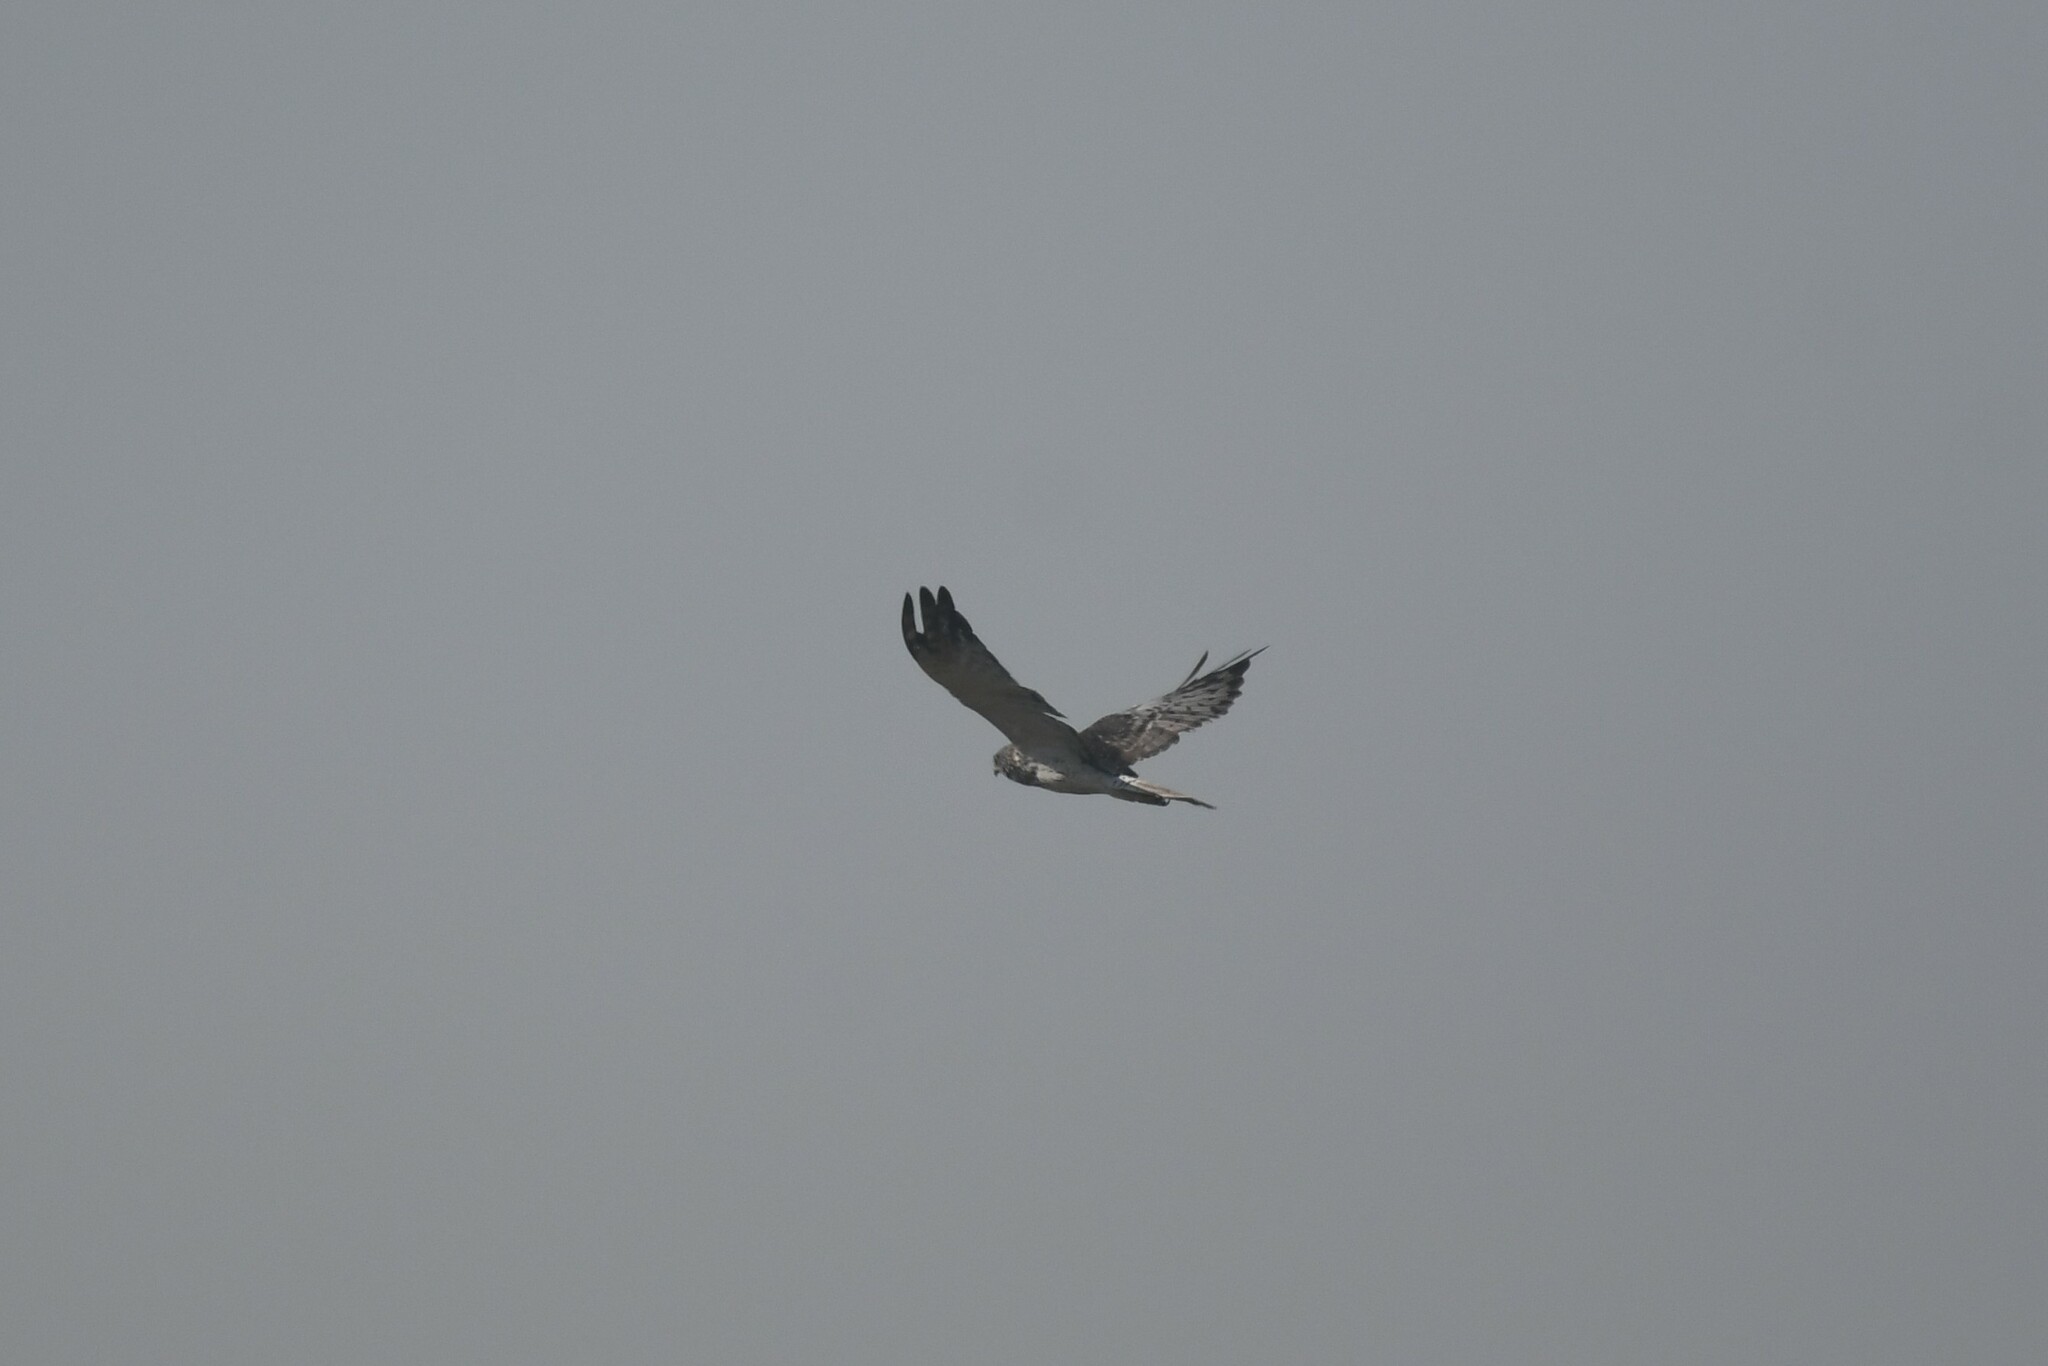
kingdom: Animalia
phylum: Chordata
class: Aves
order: Accipitriformes
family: Accipitridae
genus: Circus
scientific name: Circus spilonotus
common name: Eastern marsh-harrier
